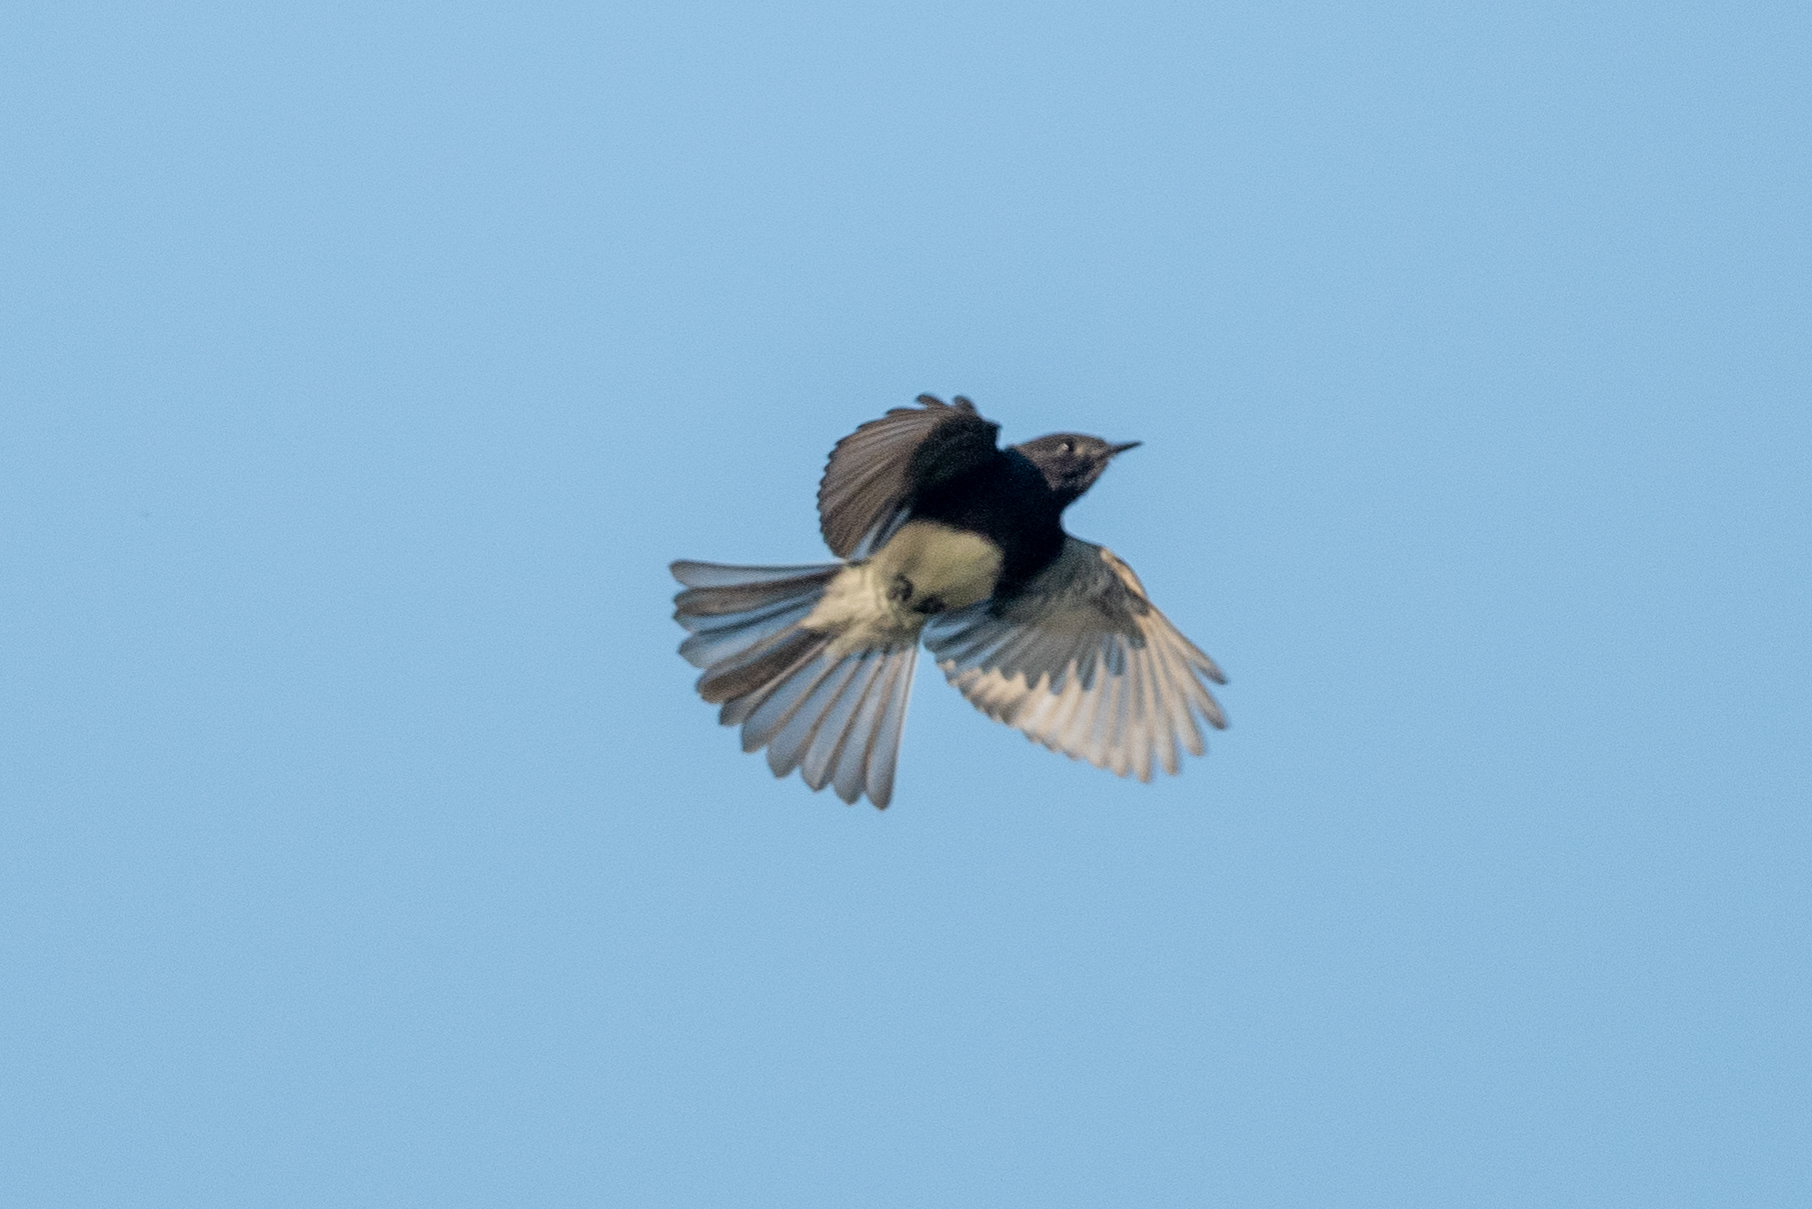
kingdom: Animalia
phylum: Chordata
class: Aves
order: Passeriformes
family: Tyrannidae
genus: Sayornis
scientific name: Sayornis nigricans
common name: Black phoebe
